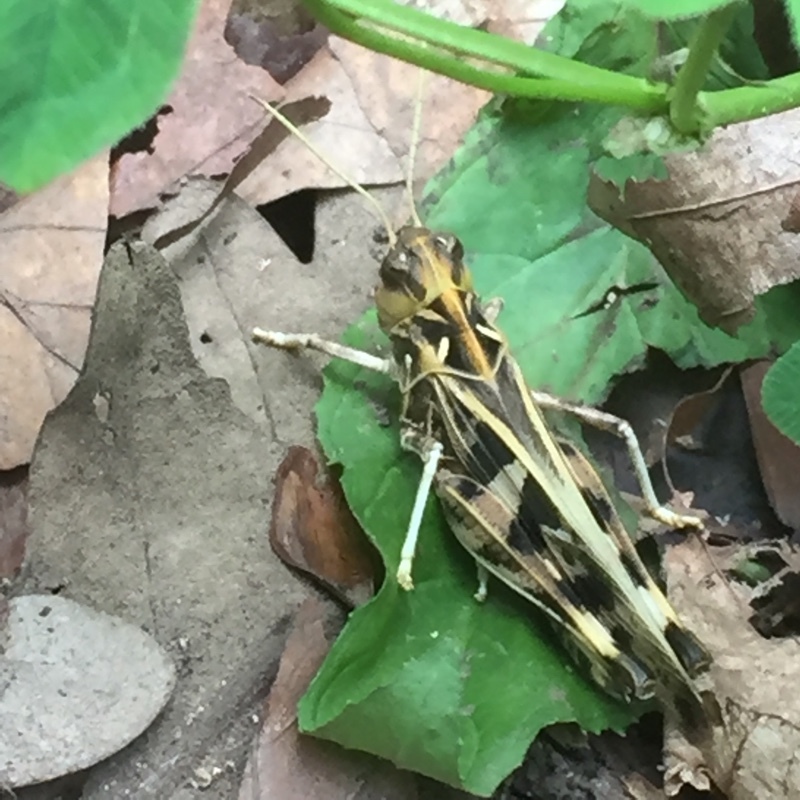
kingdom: Animalia
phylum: Arthropoda
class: Insecta
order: Orthoptera
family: Acrididae
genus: Oedaleus
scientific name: Oedaleus decorus
